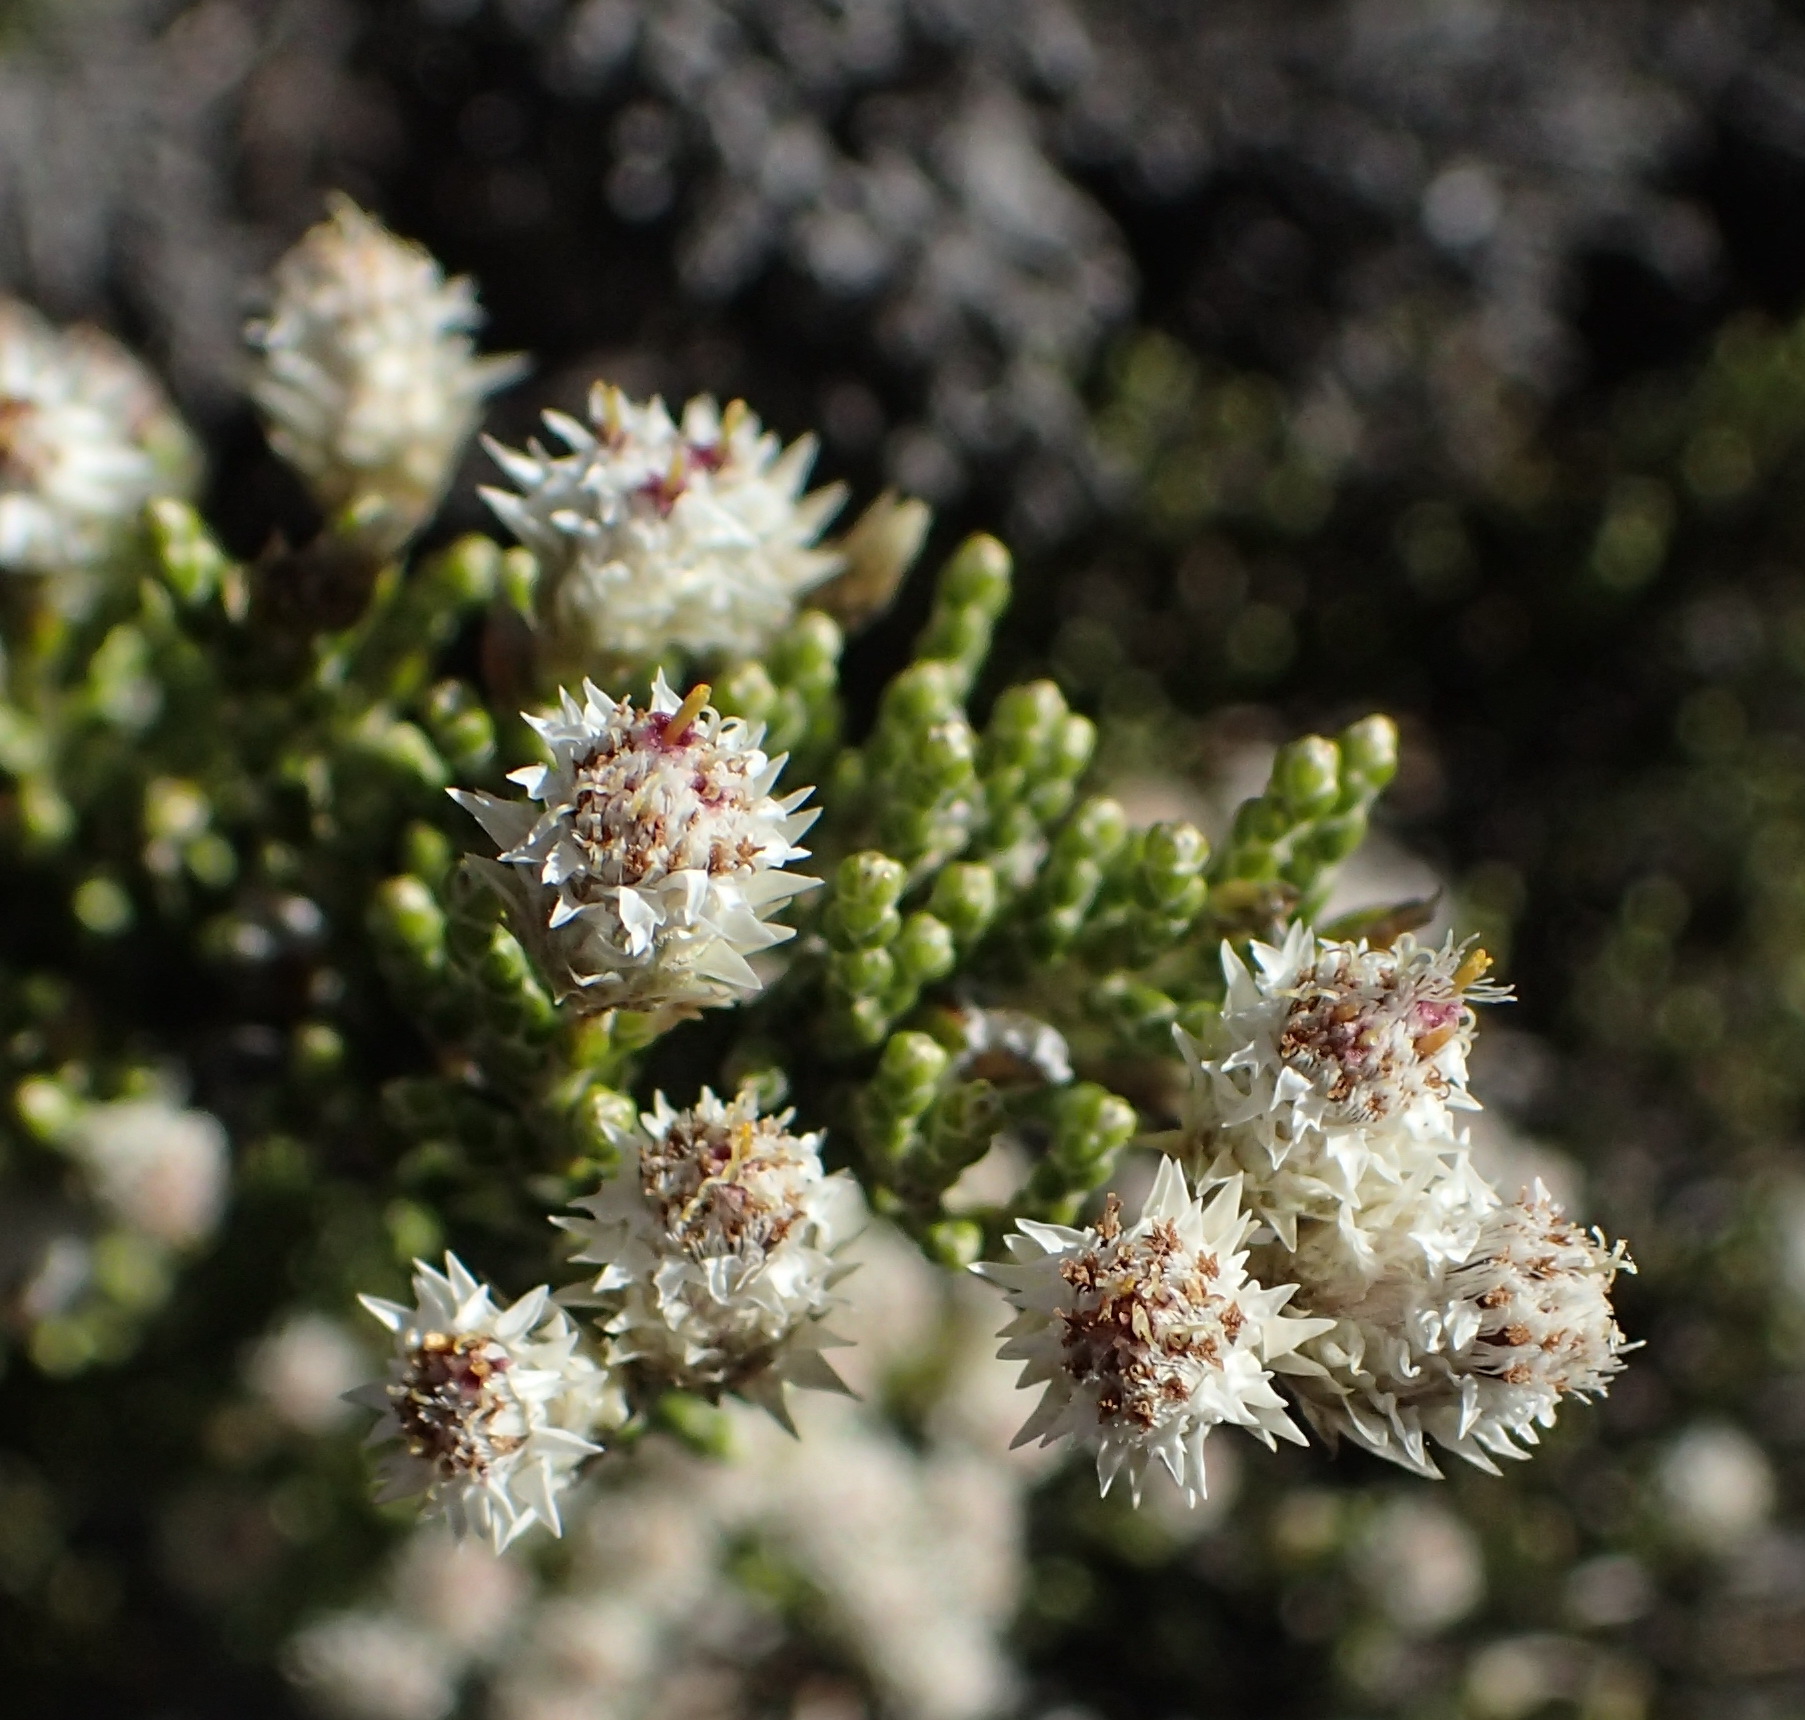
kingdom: Plantae
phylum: Tracheophyta
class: Magnoliopsida
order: Asterales
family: Asteraceae
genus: Dolichothrix
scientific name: Dolichothrix ericoides
